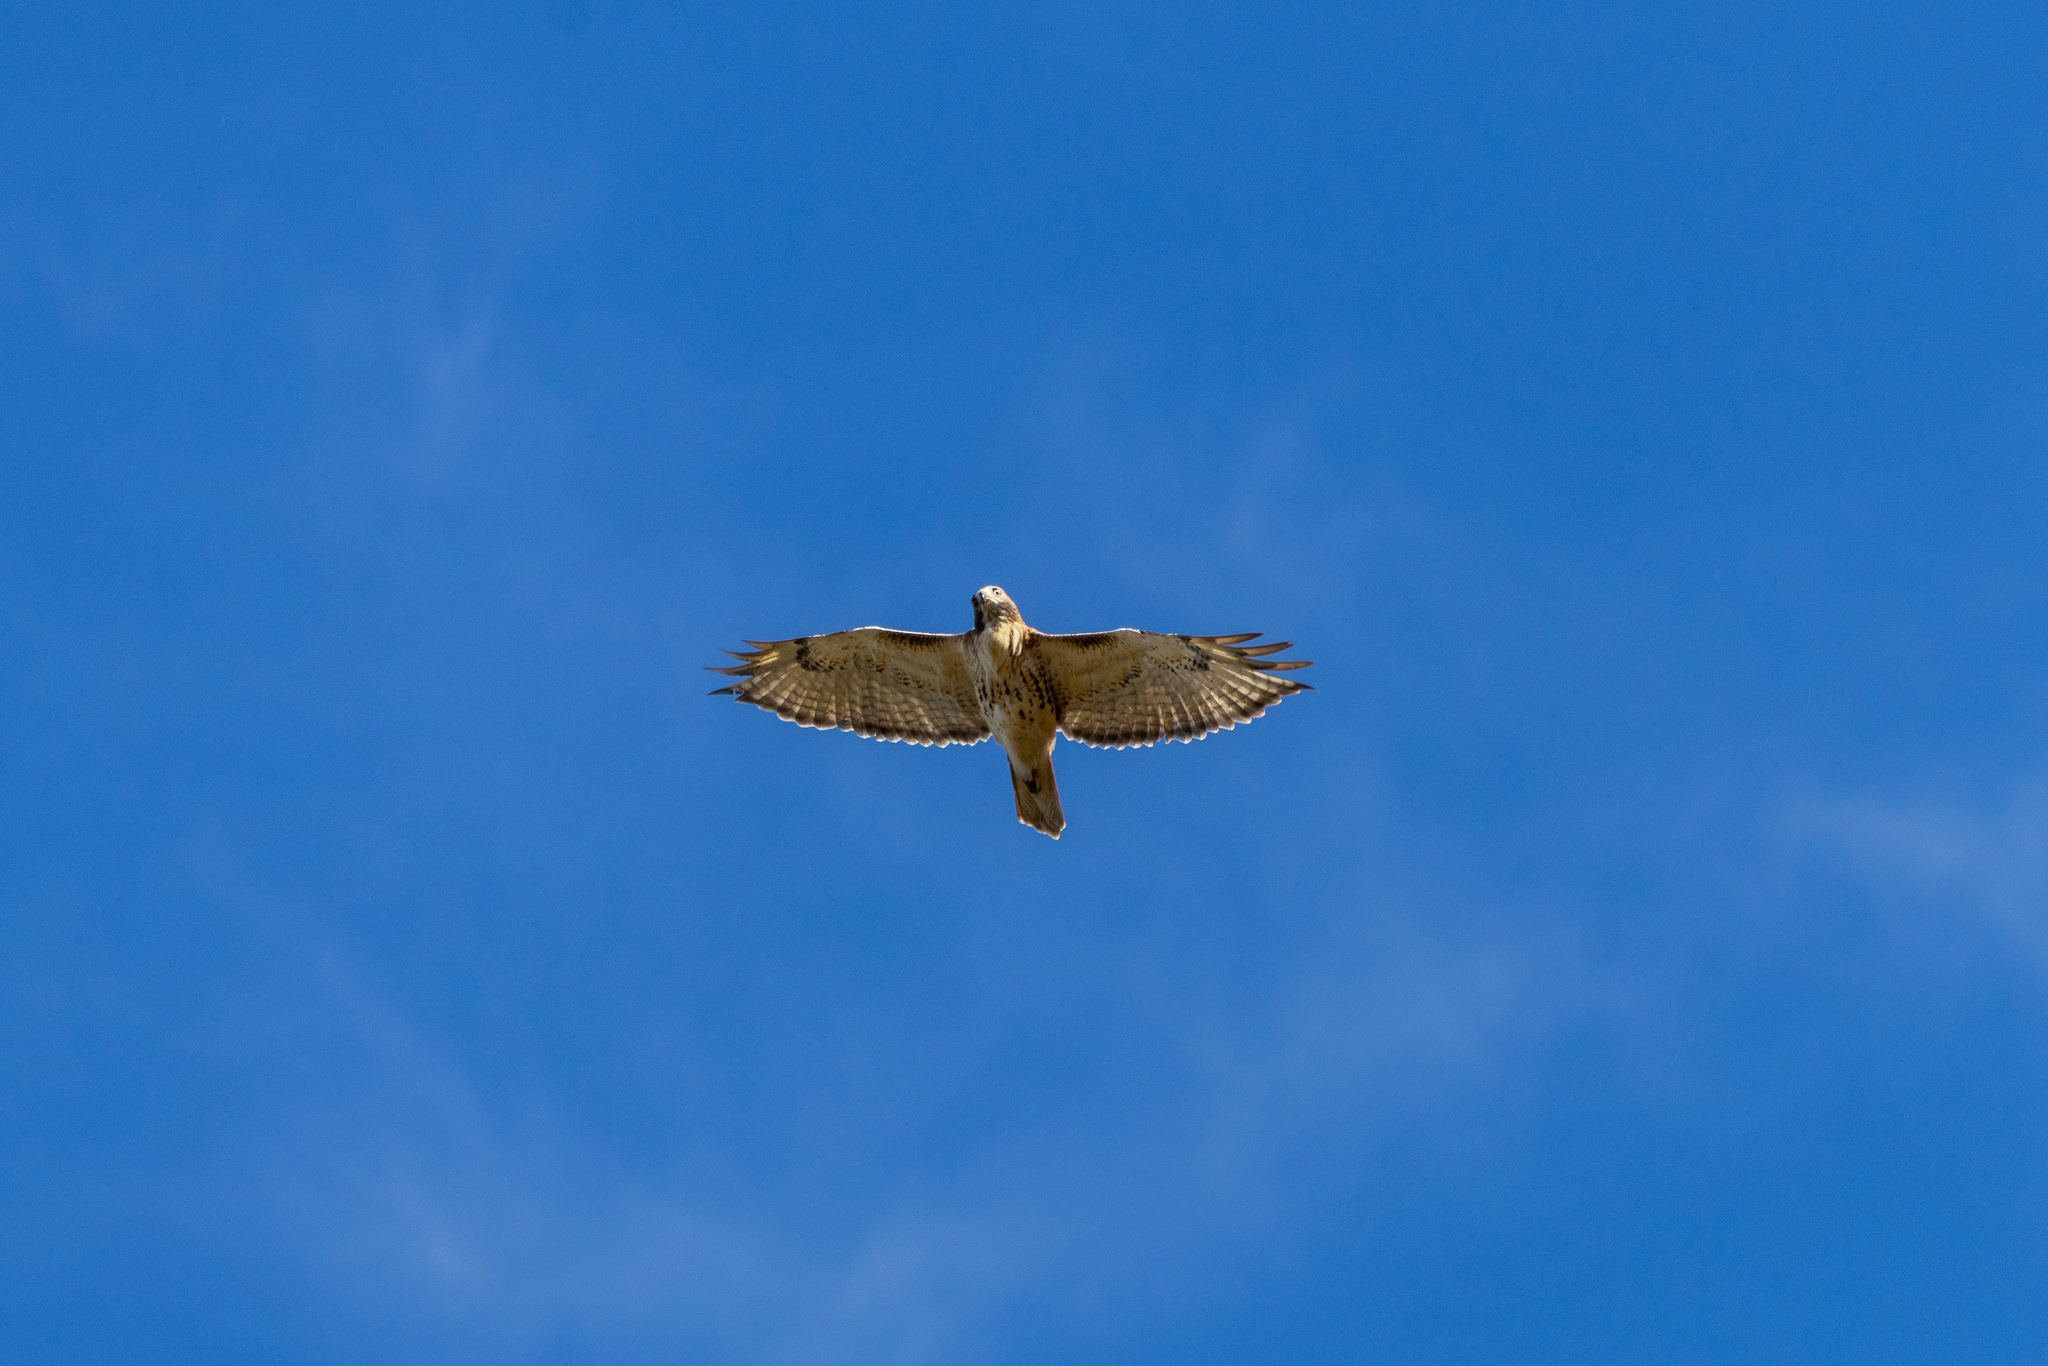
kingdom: Animalia
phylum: Chordata
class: Aves
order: Accipitriformes
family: Accipitridae
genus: Buteo
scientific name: Buteo jamaicensis
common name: Red-tailed hawk
